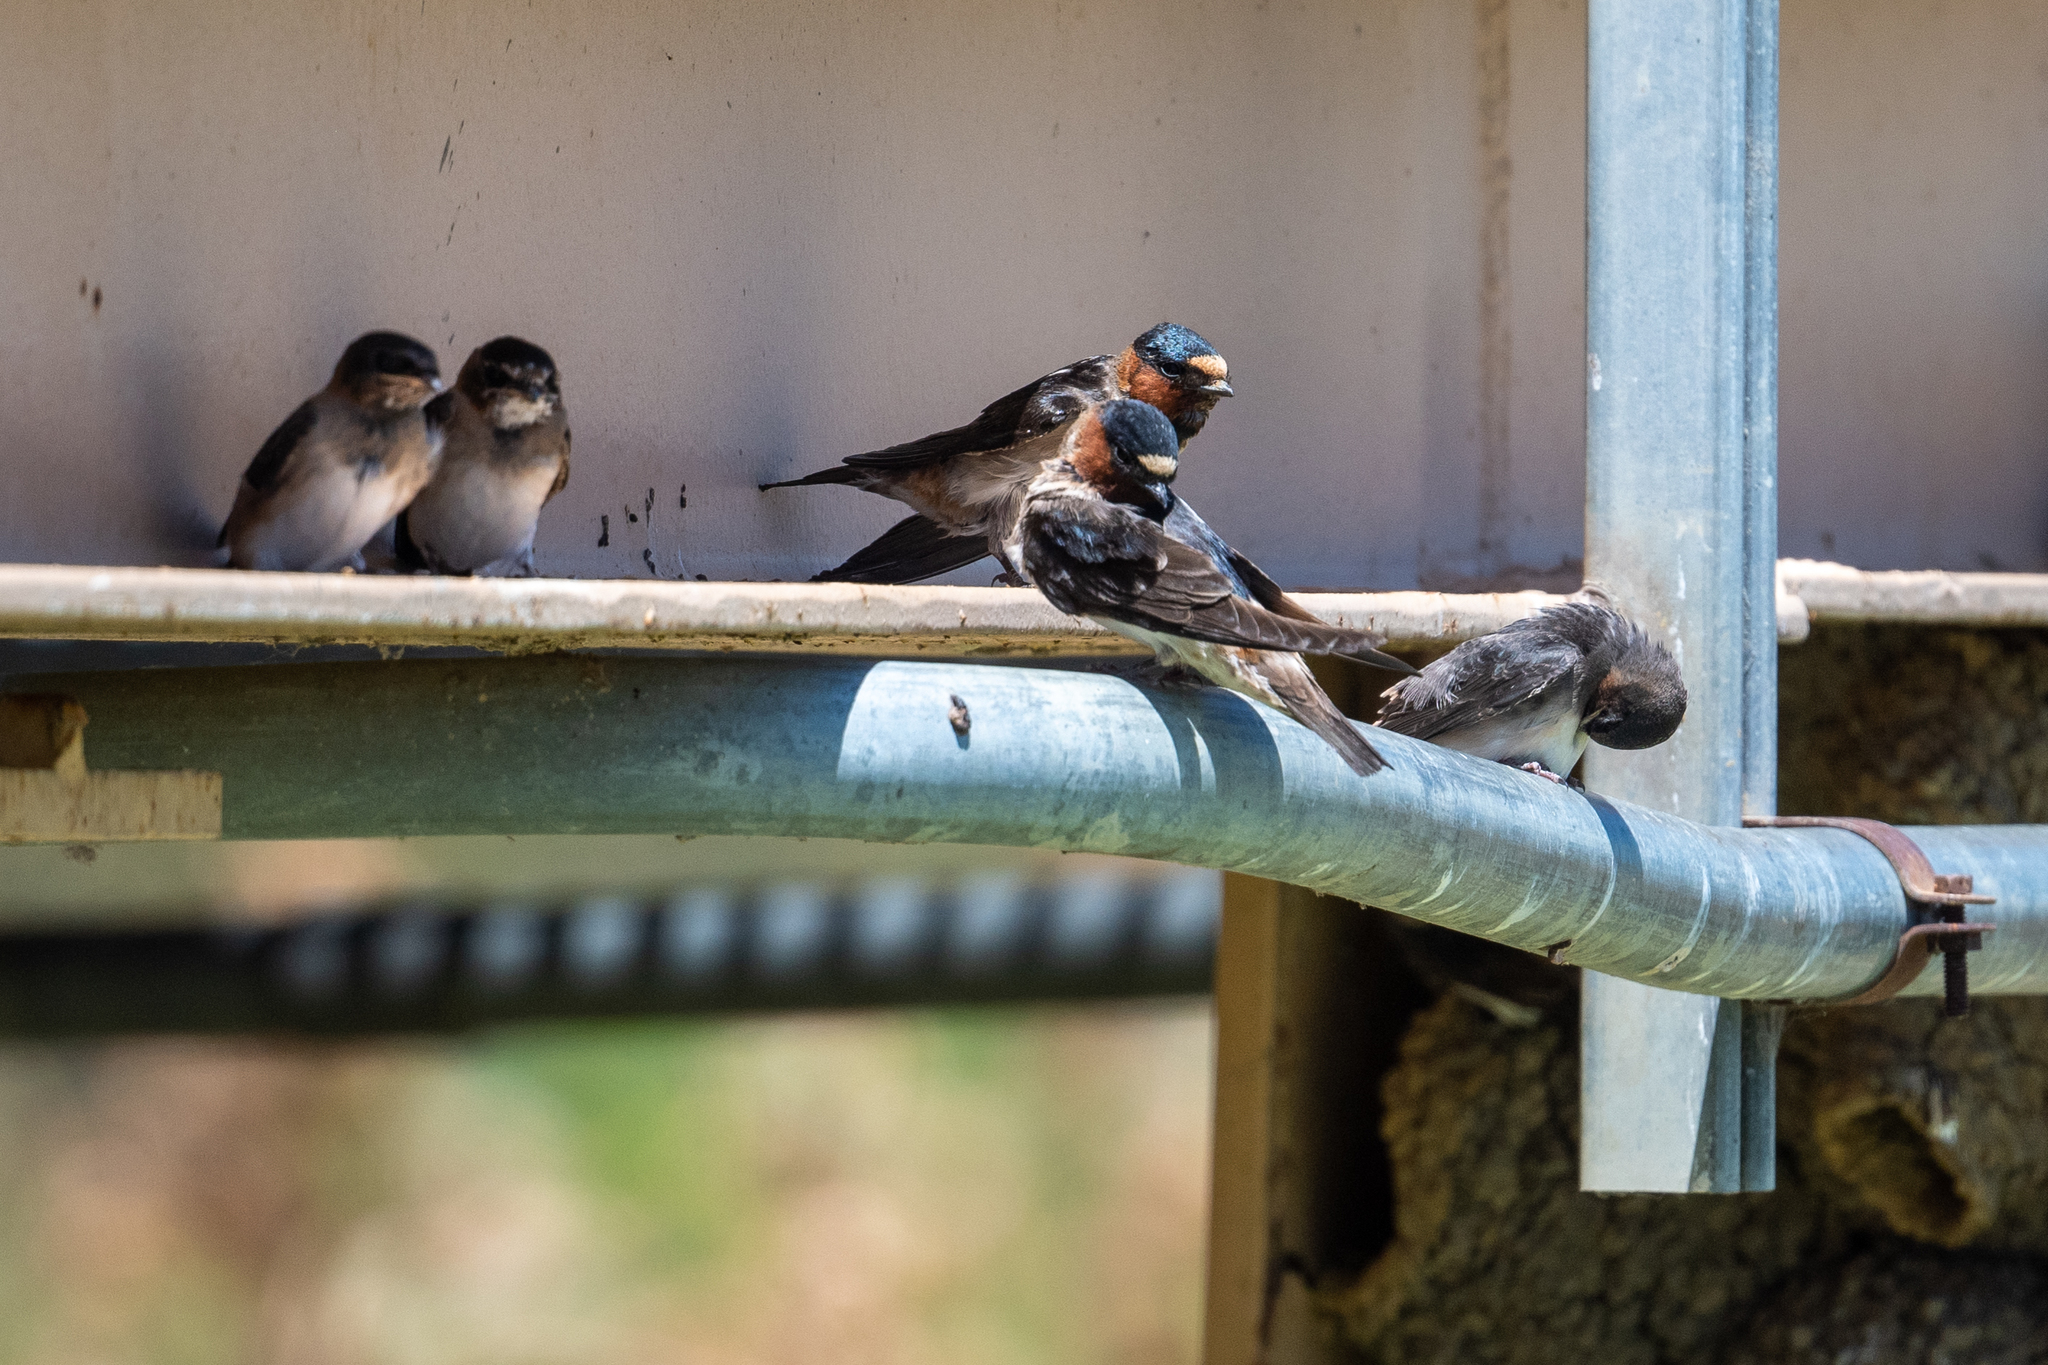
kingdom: Animalia
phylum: Chordata
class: Aves
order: Passeriformes
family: Hirundinidae
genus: Petrochelidon
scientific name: Petrochelidon pyrrhonota
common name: American cliff swallow
